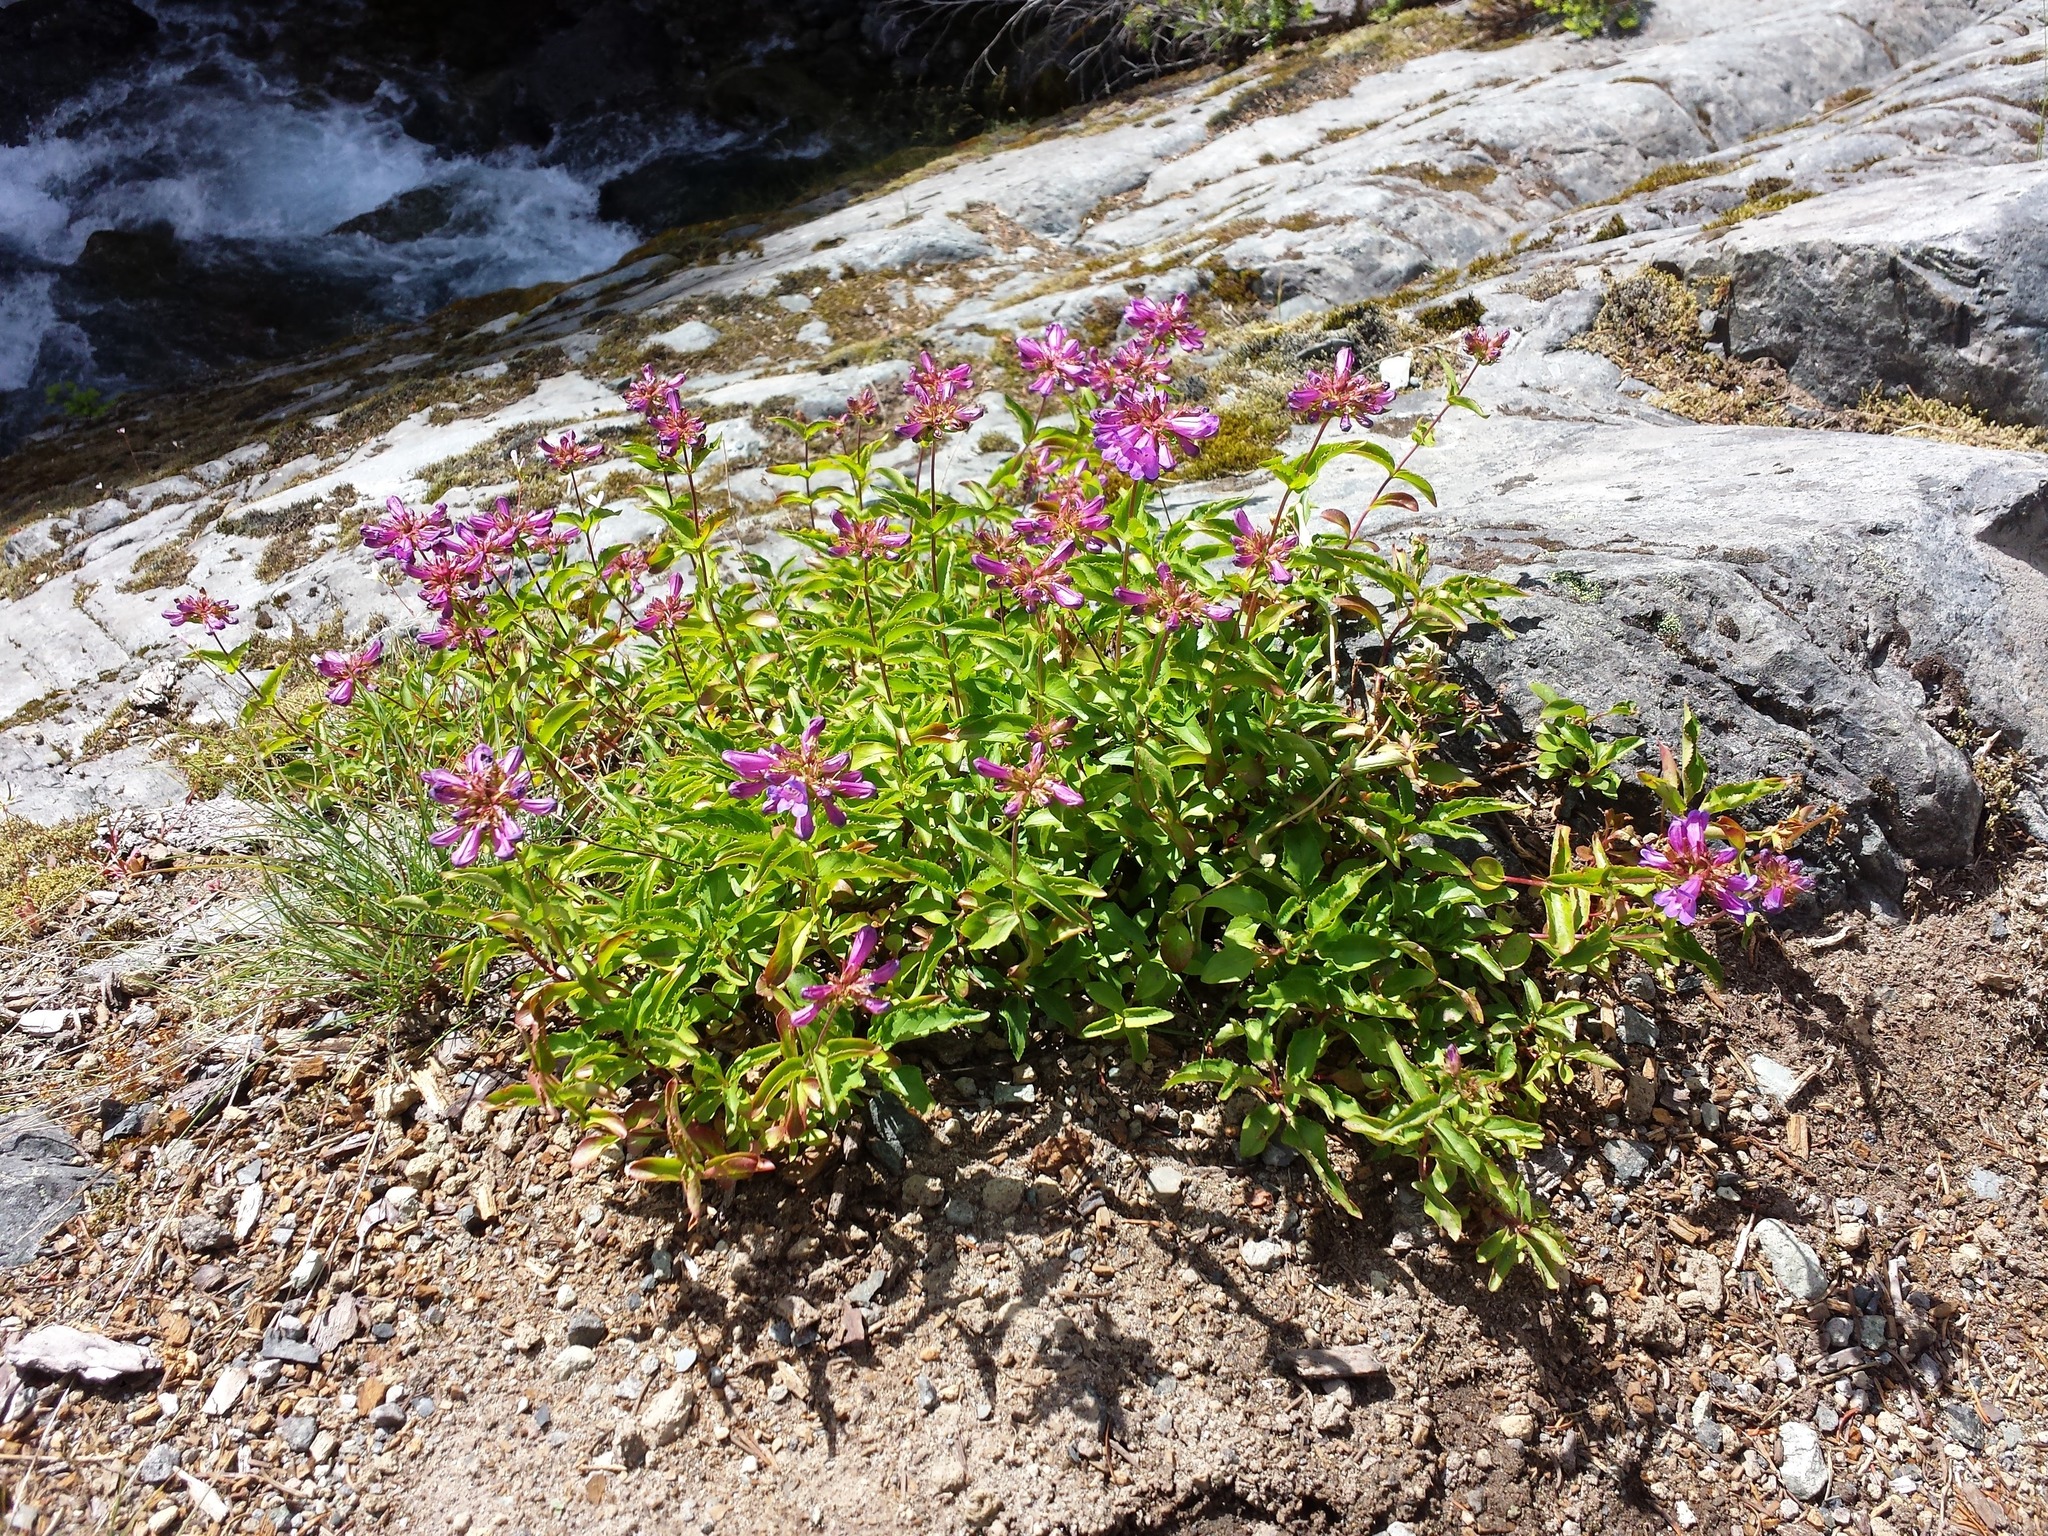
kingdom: Plantae
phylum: Tracheophyta
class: Magnoliopsida
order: Lamiales
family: Plantaginaceae
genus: Penstemon
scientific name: Penstemon serrulatus
